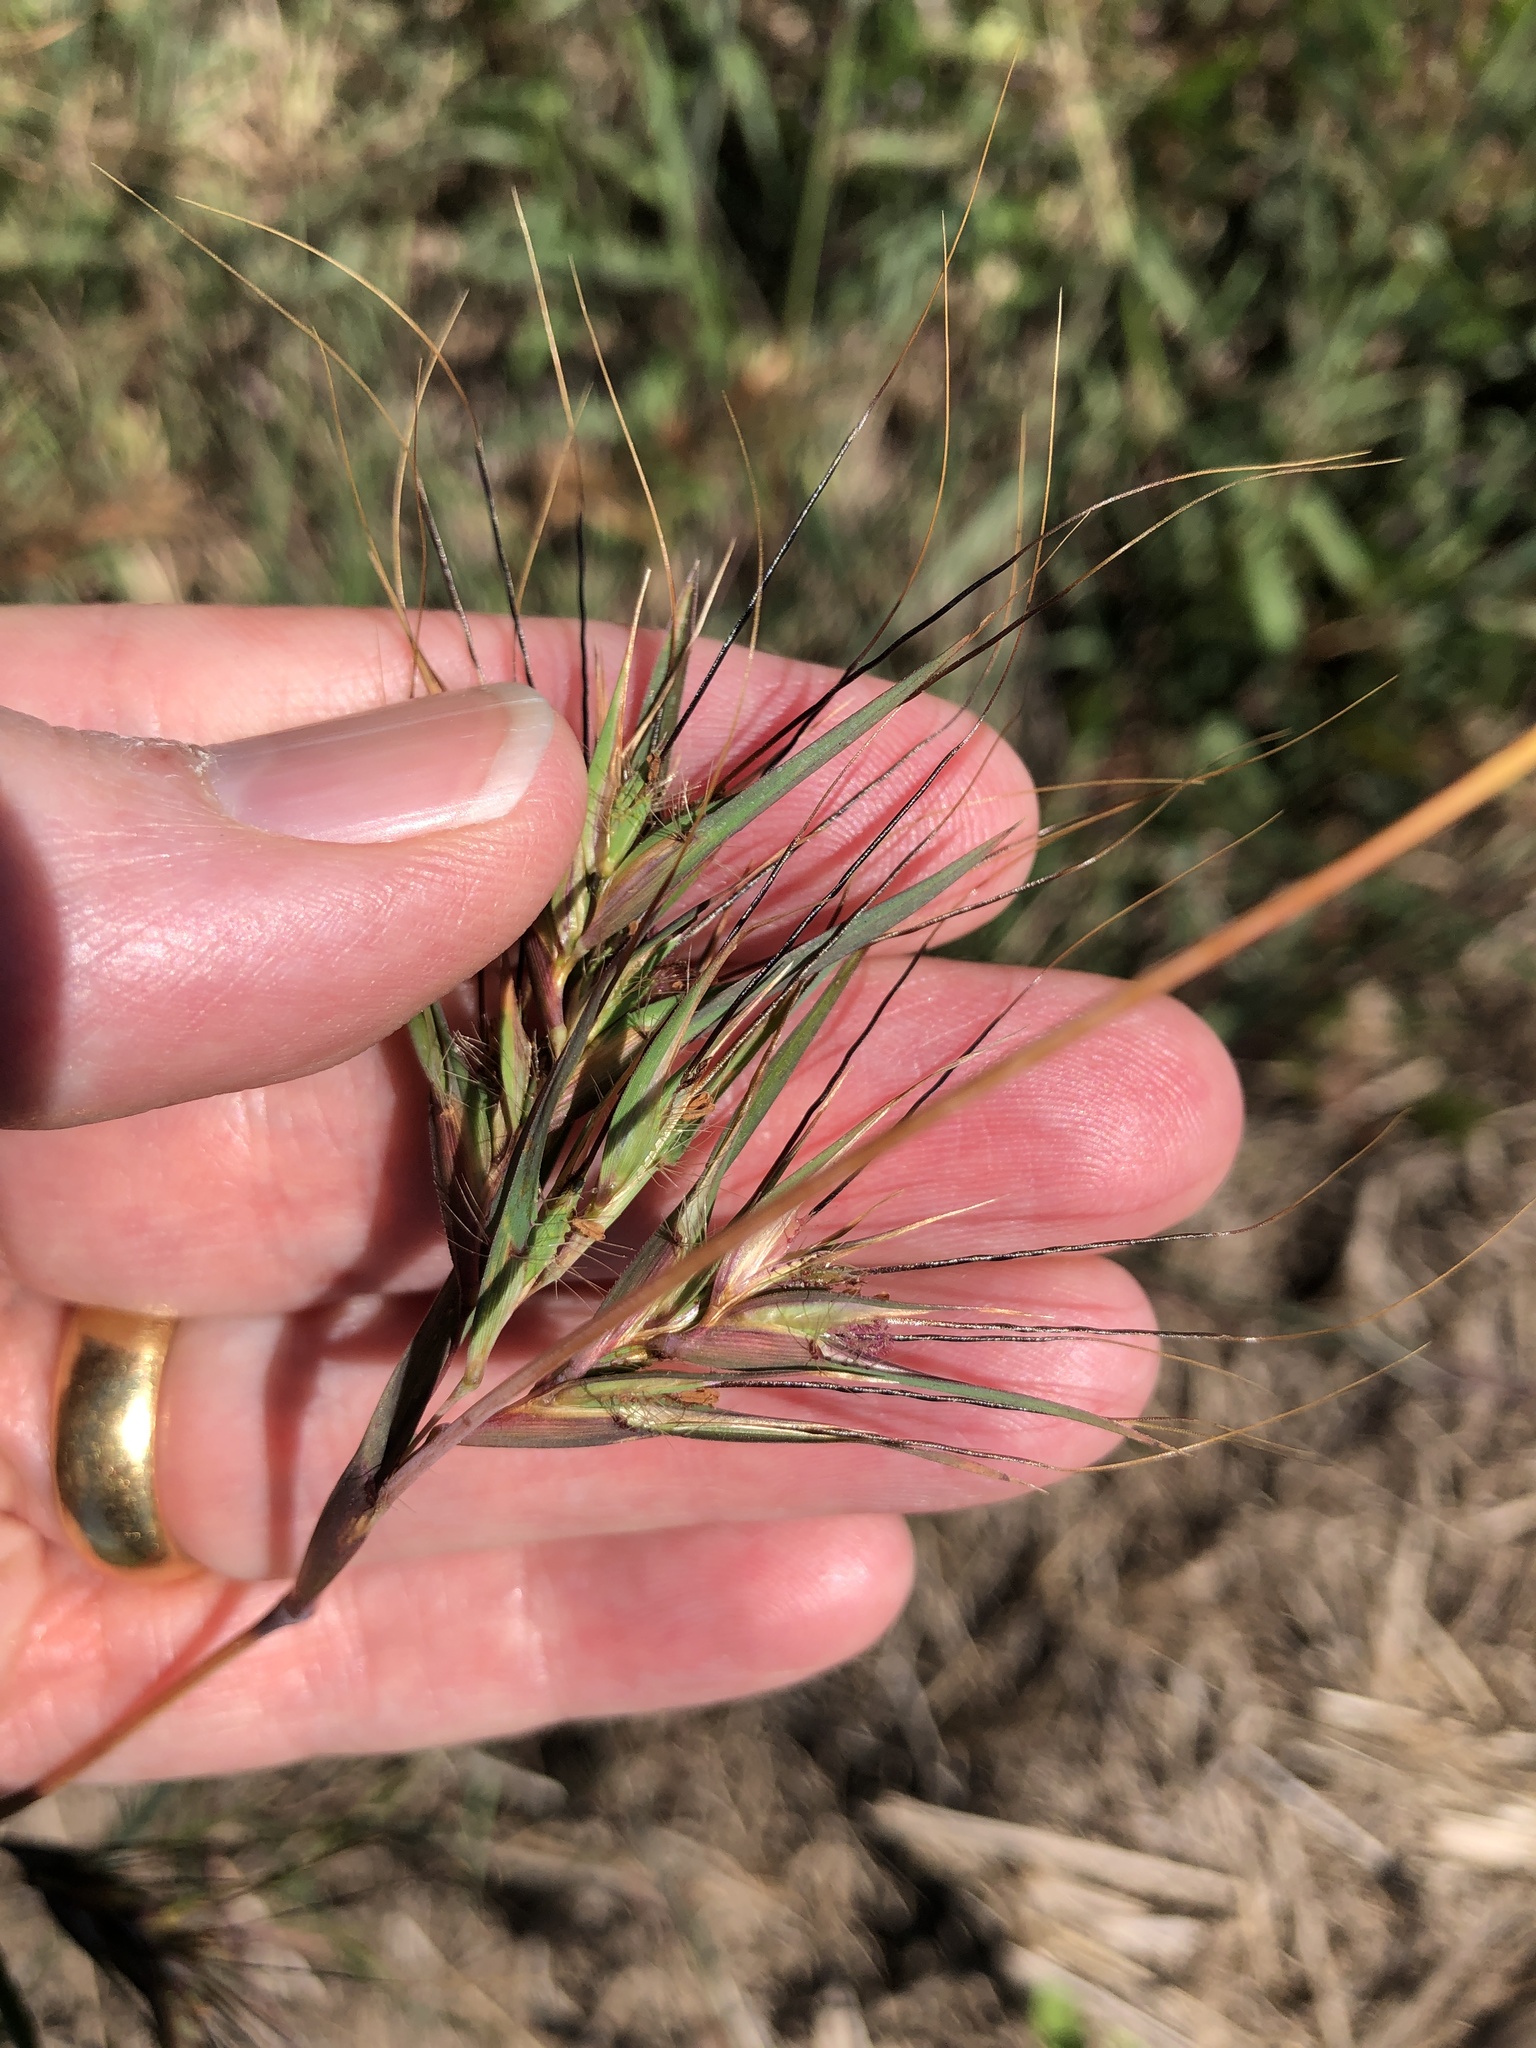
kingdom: Plantae
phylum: Tracheophyta
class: Liliopsida
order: Poales
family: Poaceae
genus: Themeda
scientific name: Themeda quadrivalvis
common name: Kangaroo grass
